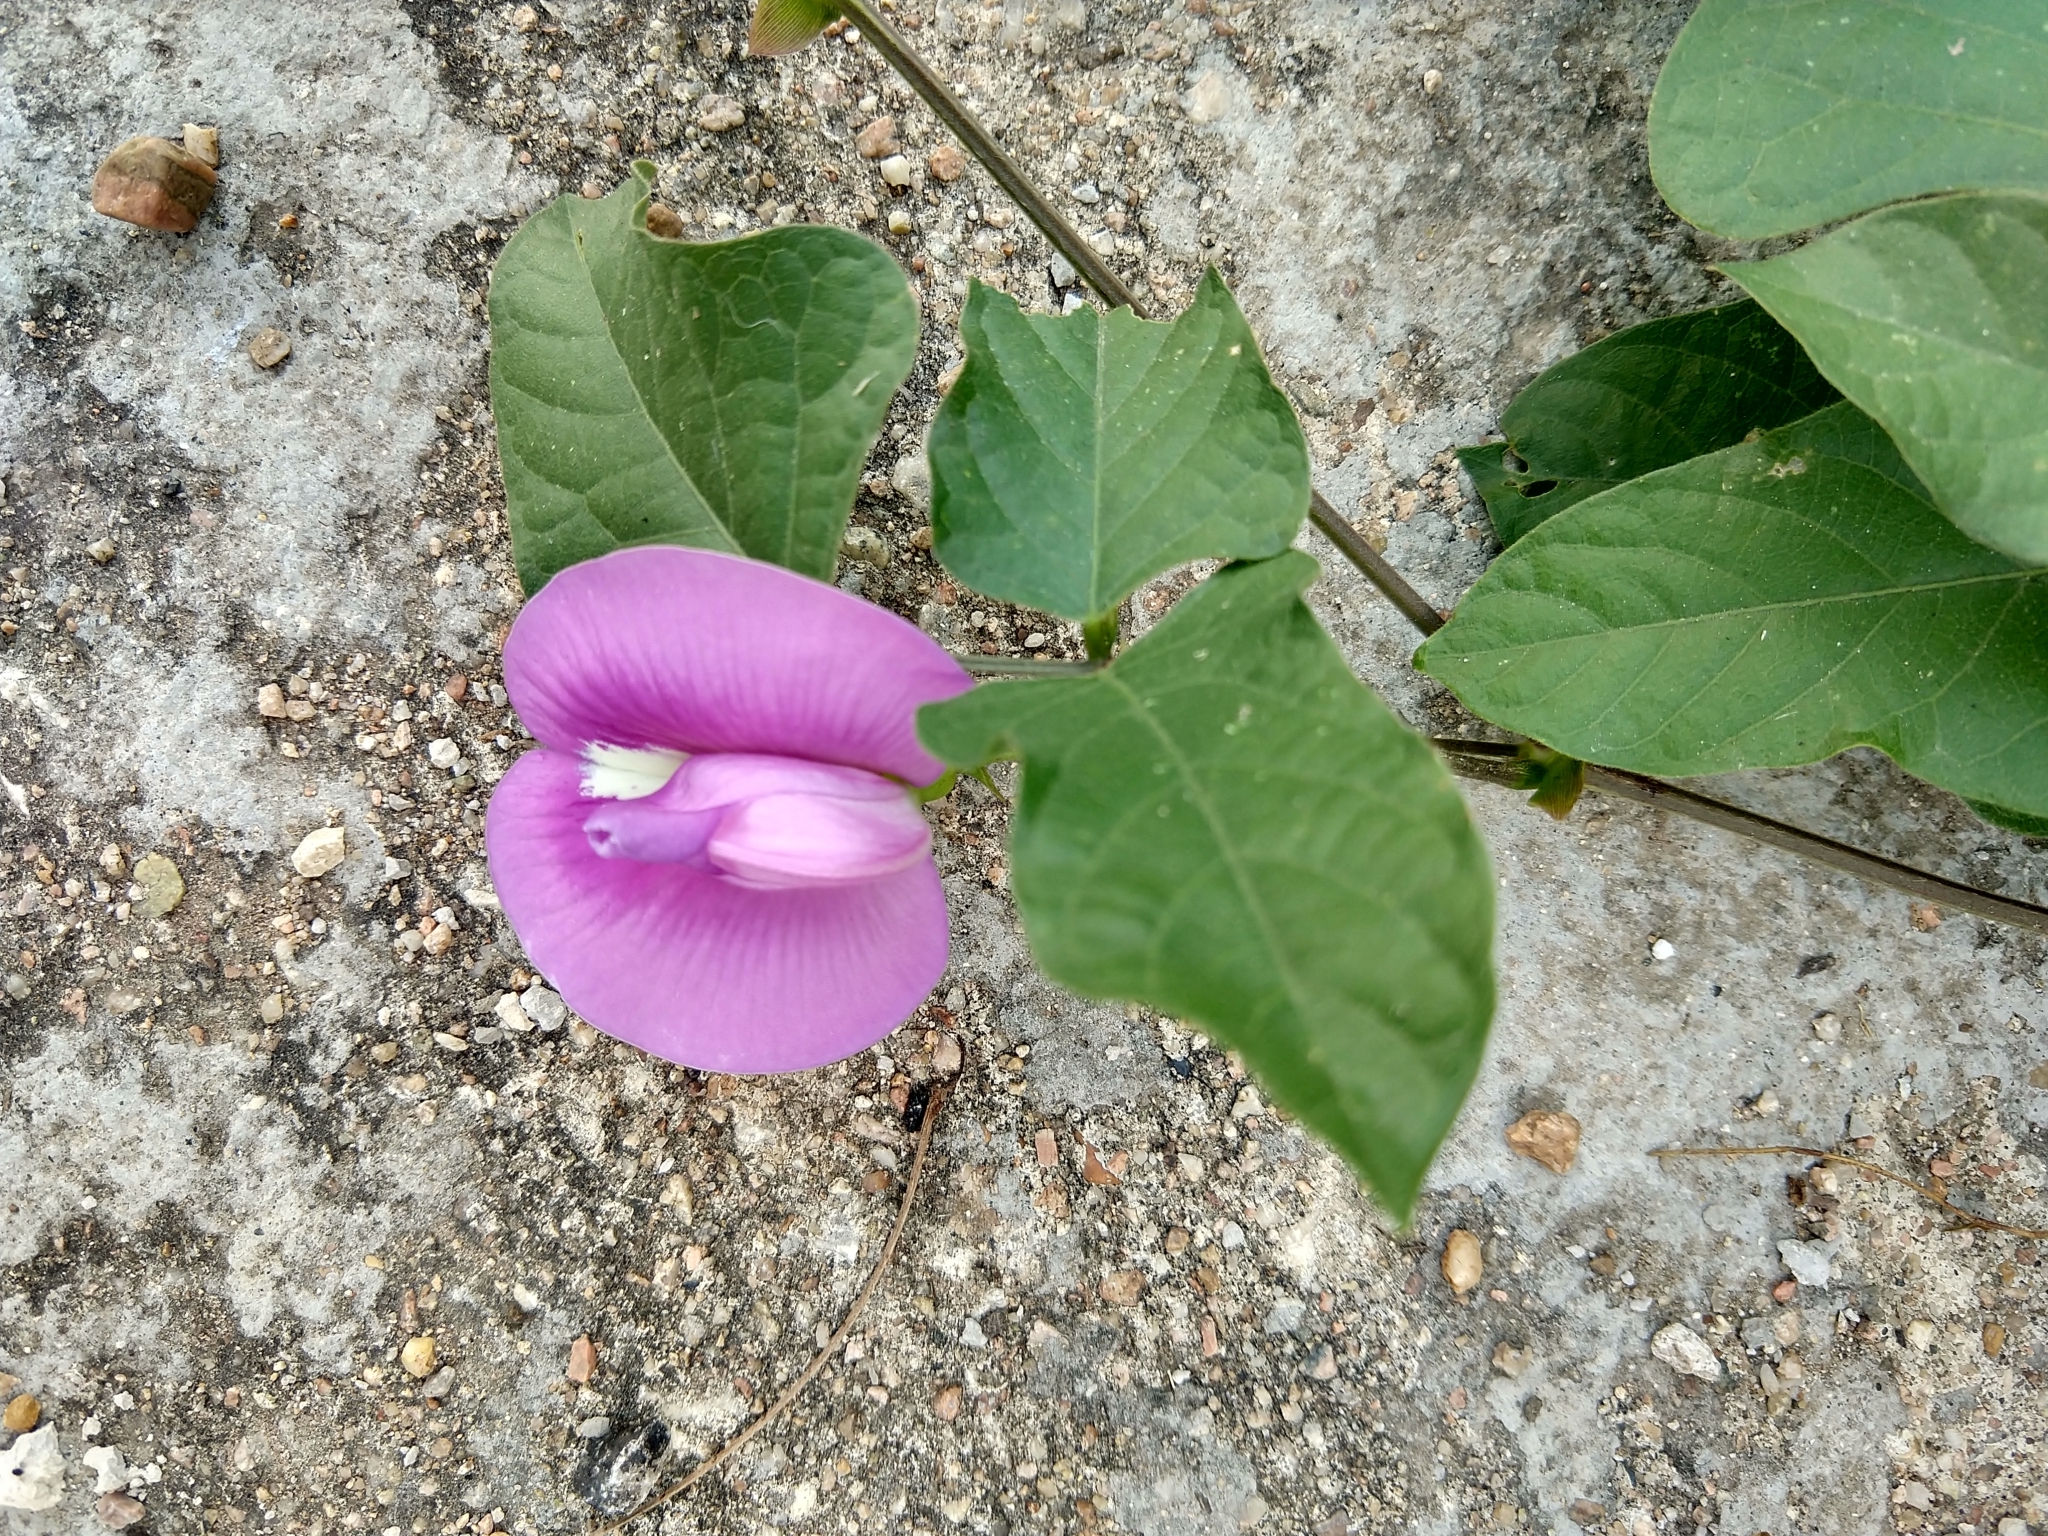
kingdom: Plantae
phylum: Tracheophyta
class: Magnoliopsida
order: Fabales
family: Fabaceae
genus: Centrosema
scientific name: Centrosema virginianum
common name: Butterfly-pea
